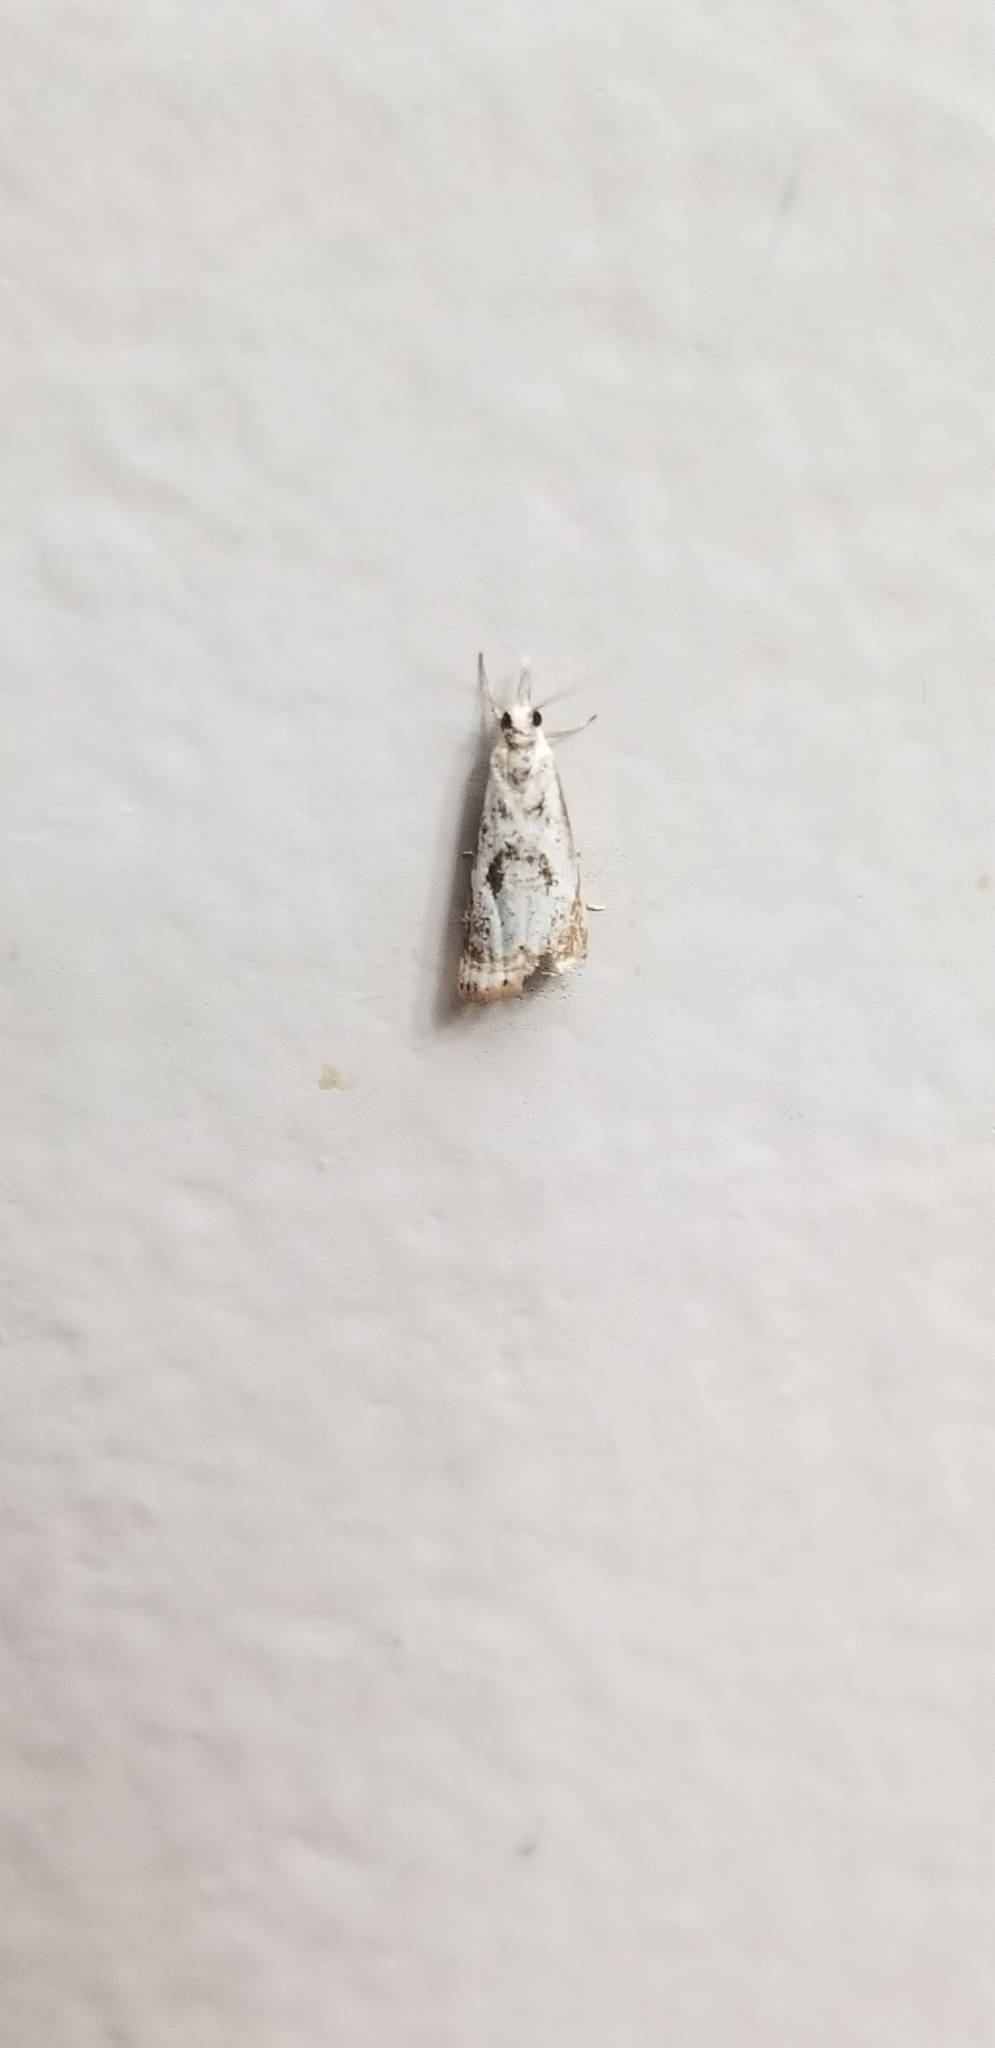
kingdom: Animalia
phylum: Arthropoda
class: Insecta
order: Lepidoptera
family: Crambidae
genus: Microcrambus
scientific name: Microcrambus elegans
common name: Elegant grass-veneer
